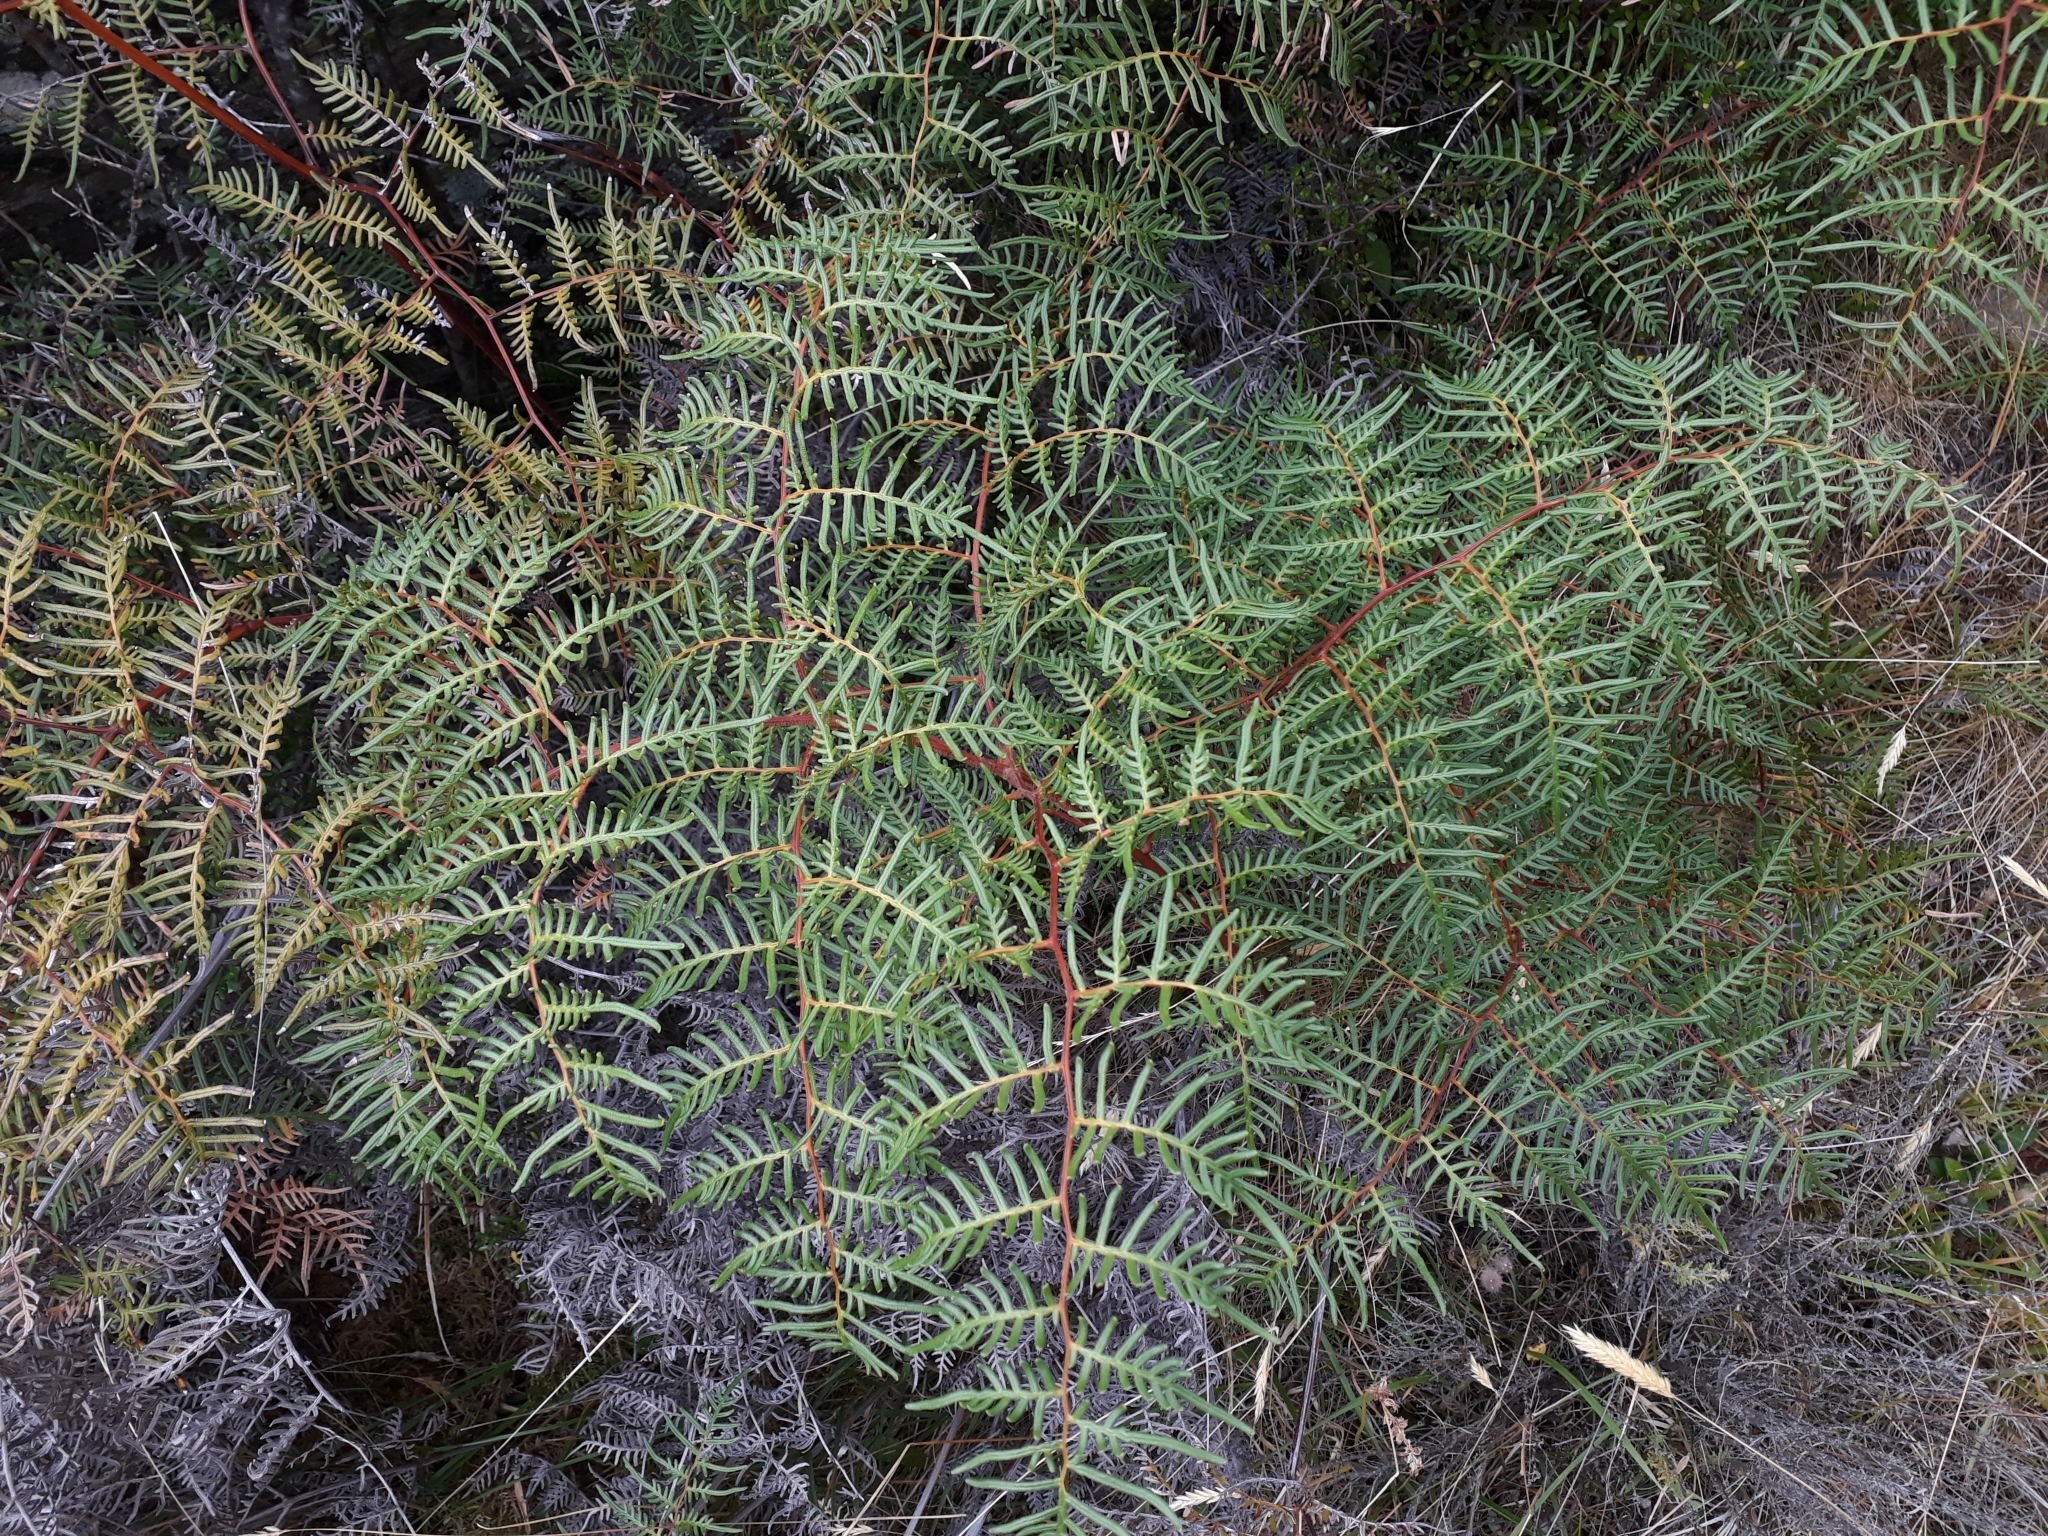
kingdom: Plantae
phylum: Tracheophyta
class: Polypodiopsida
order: Polypodiales
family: Dennstaedtiaceae
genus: Pteridium
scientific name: Pteridium esculentum
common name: Bracken fern
